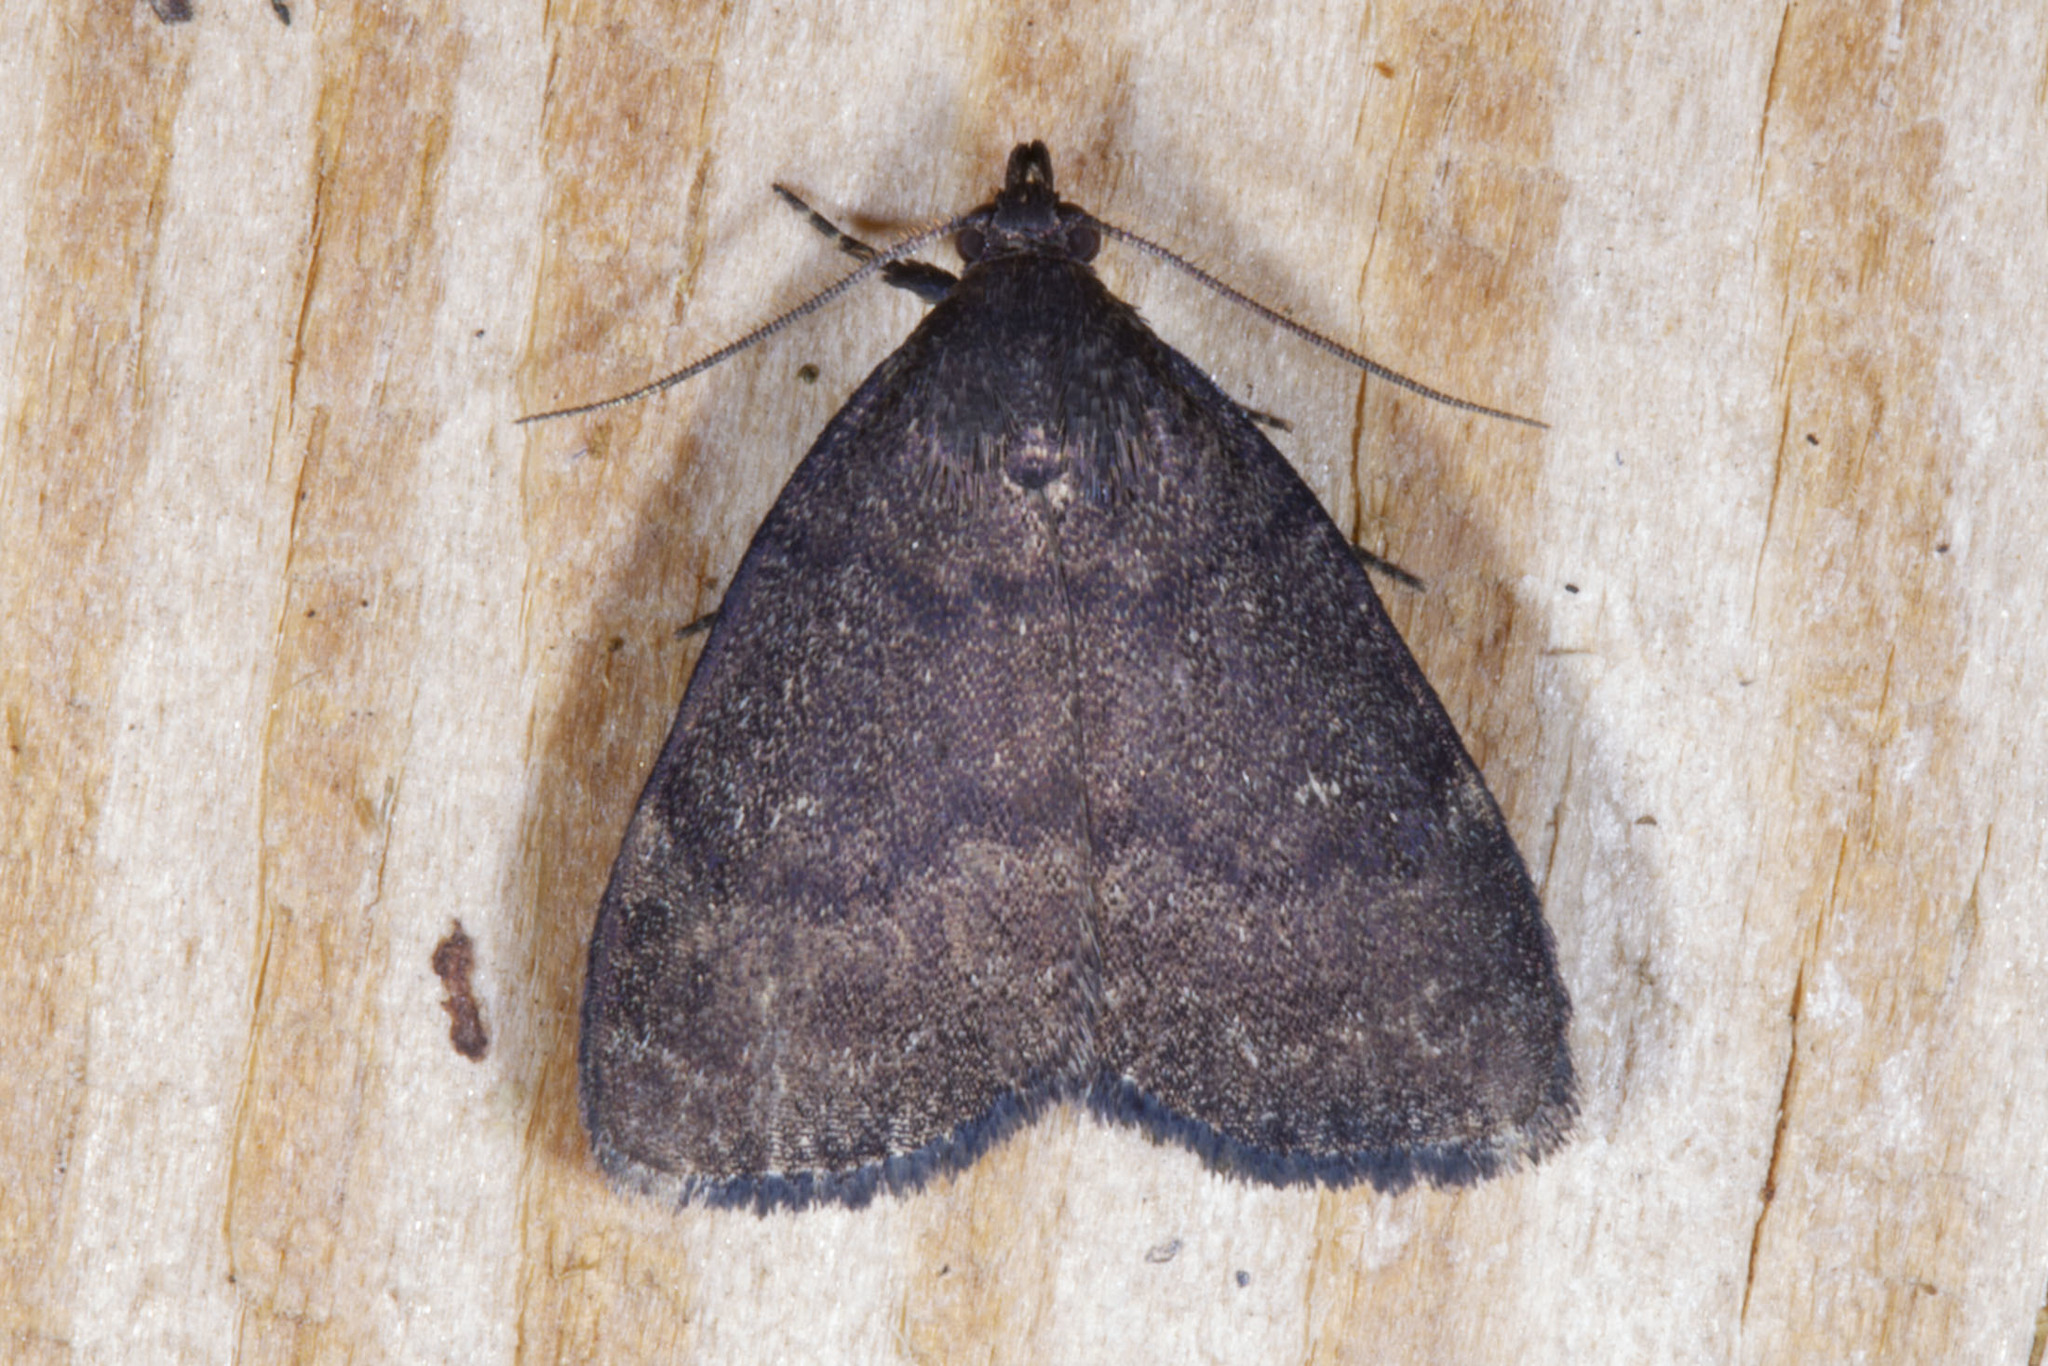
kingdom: Animalia
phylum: Arthropoda
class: Insecta
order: Lepidoptera
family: Erebidae
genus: Idia
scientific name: Idia rotundalis
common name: Rotund idia moth
